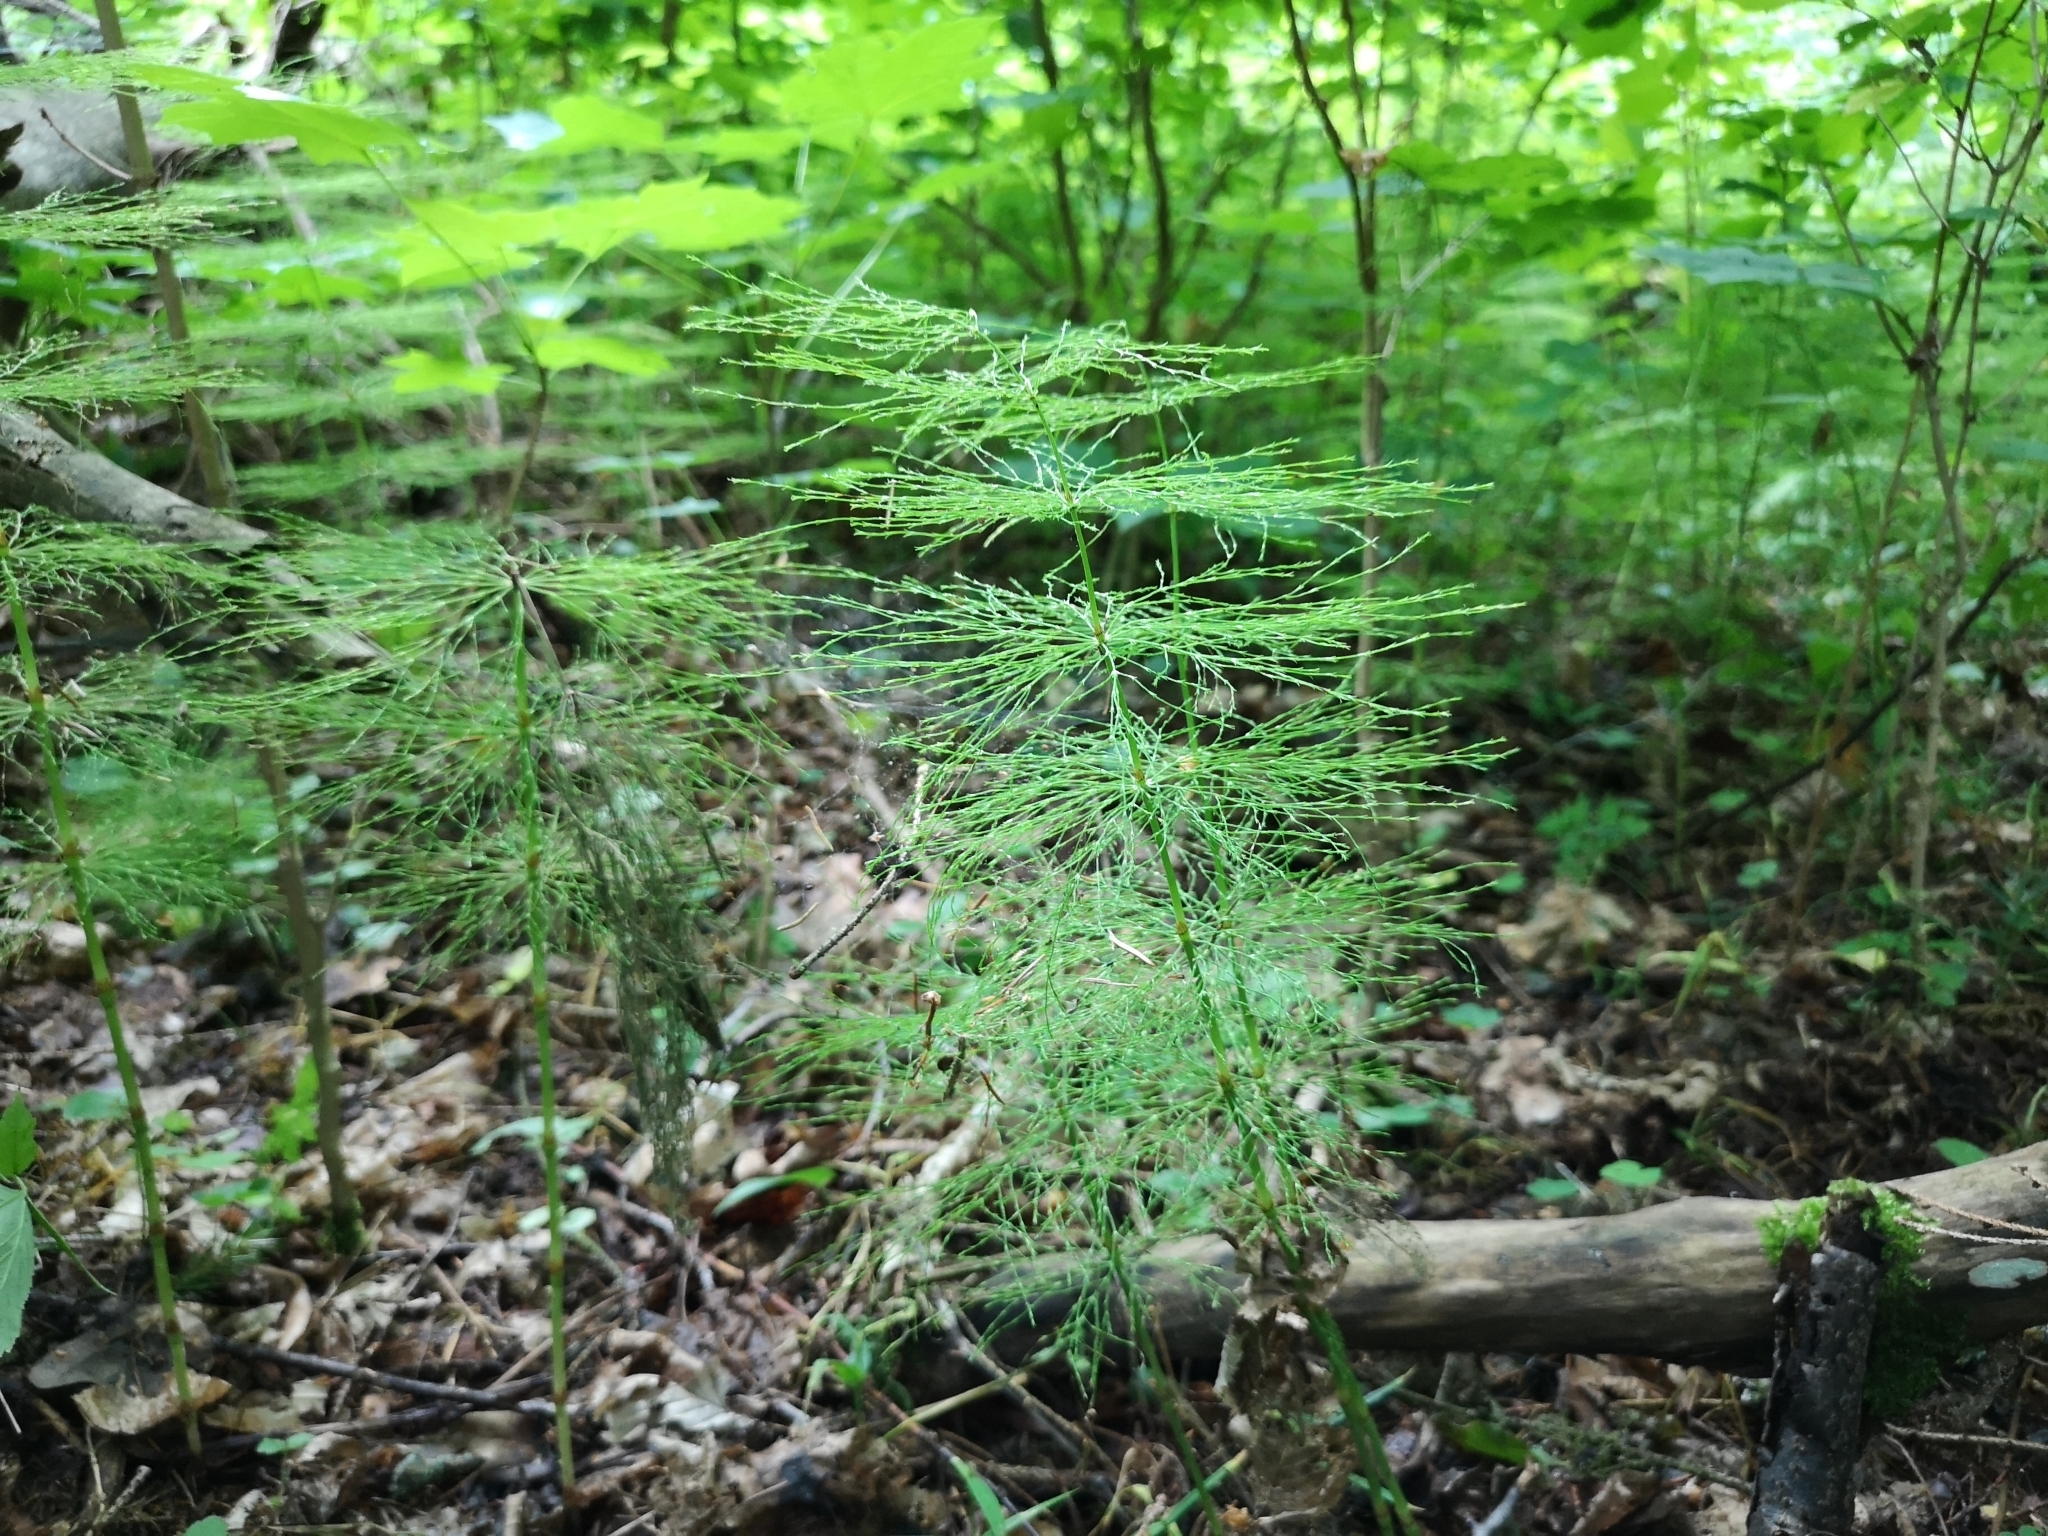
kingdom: Plantae
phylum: Tracheophyta
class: Polypodiopsida
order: Equisetales
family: Equisetaceae
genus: Equisetum
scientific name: Equisetum sylvaticum
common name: Wood horsetail
